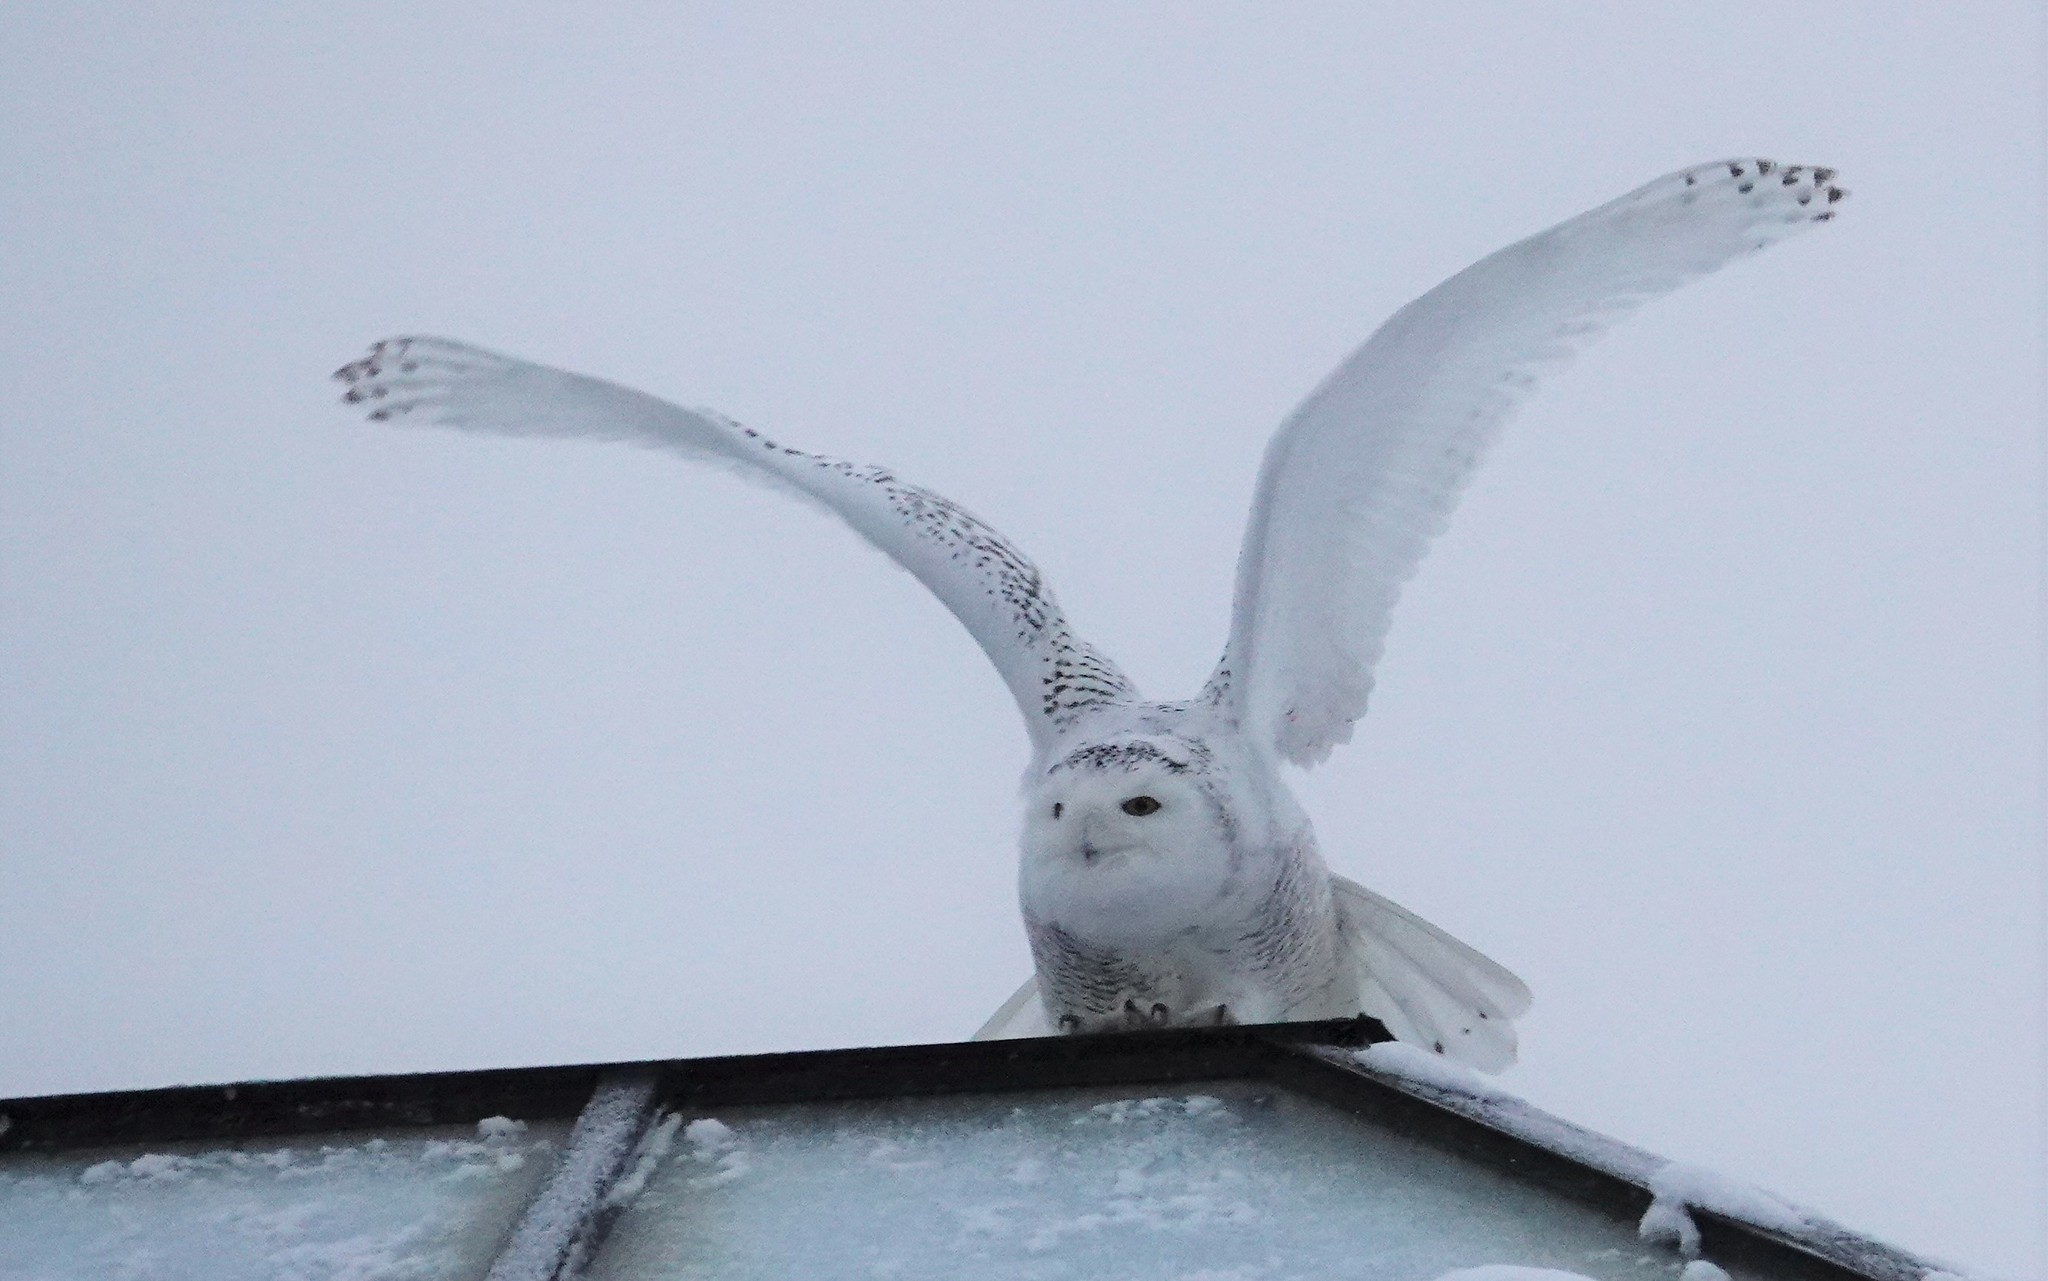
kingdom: Animalia
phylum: Chordata
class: Aves
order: Strigiformes
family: Strigidae
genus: Bubo
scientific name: Bubo scandiacus
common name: Snowy owl
